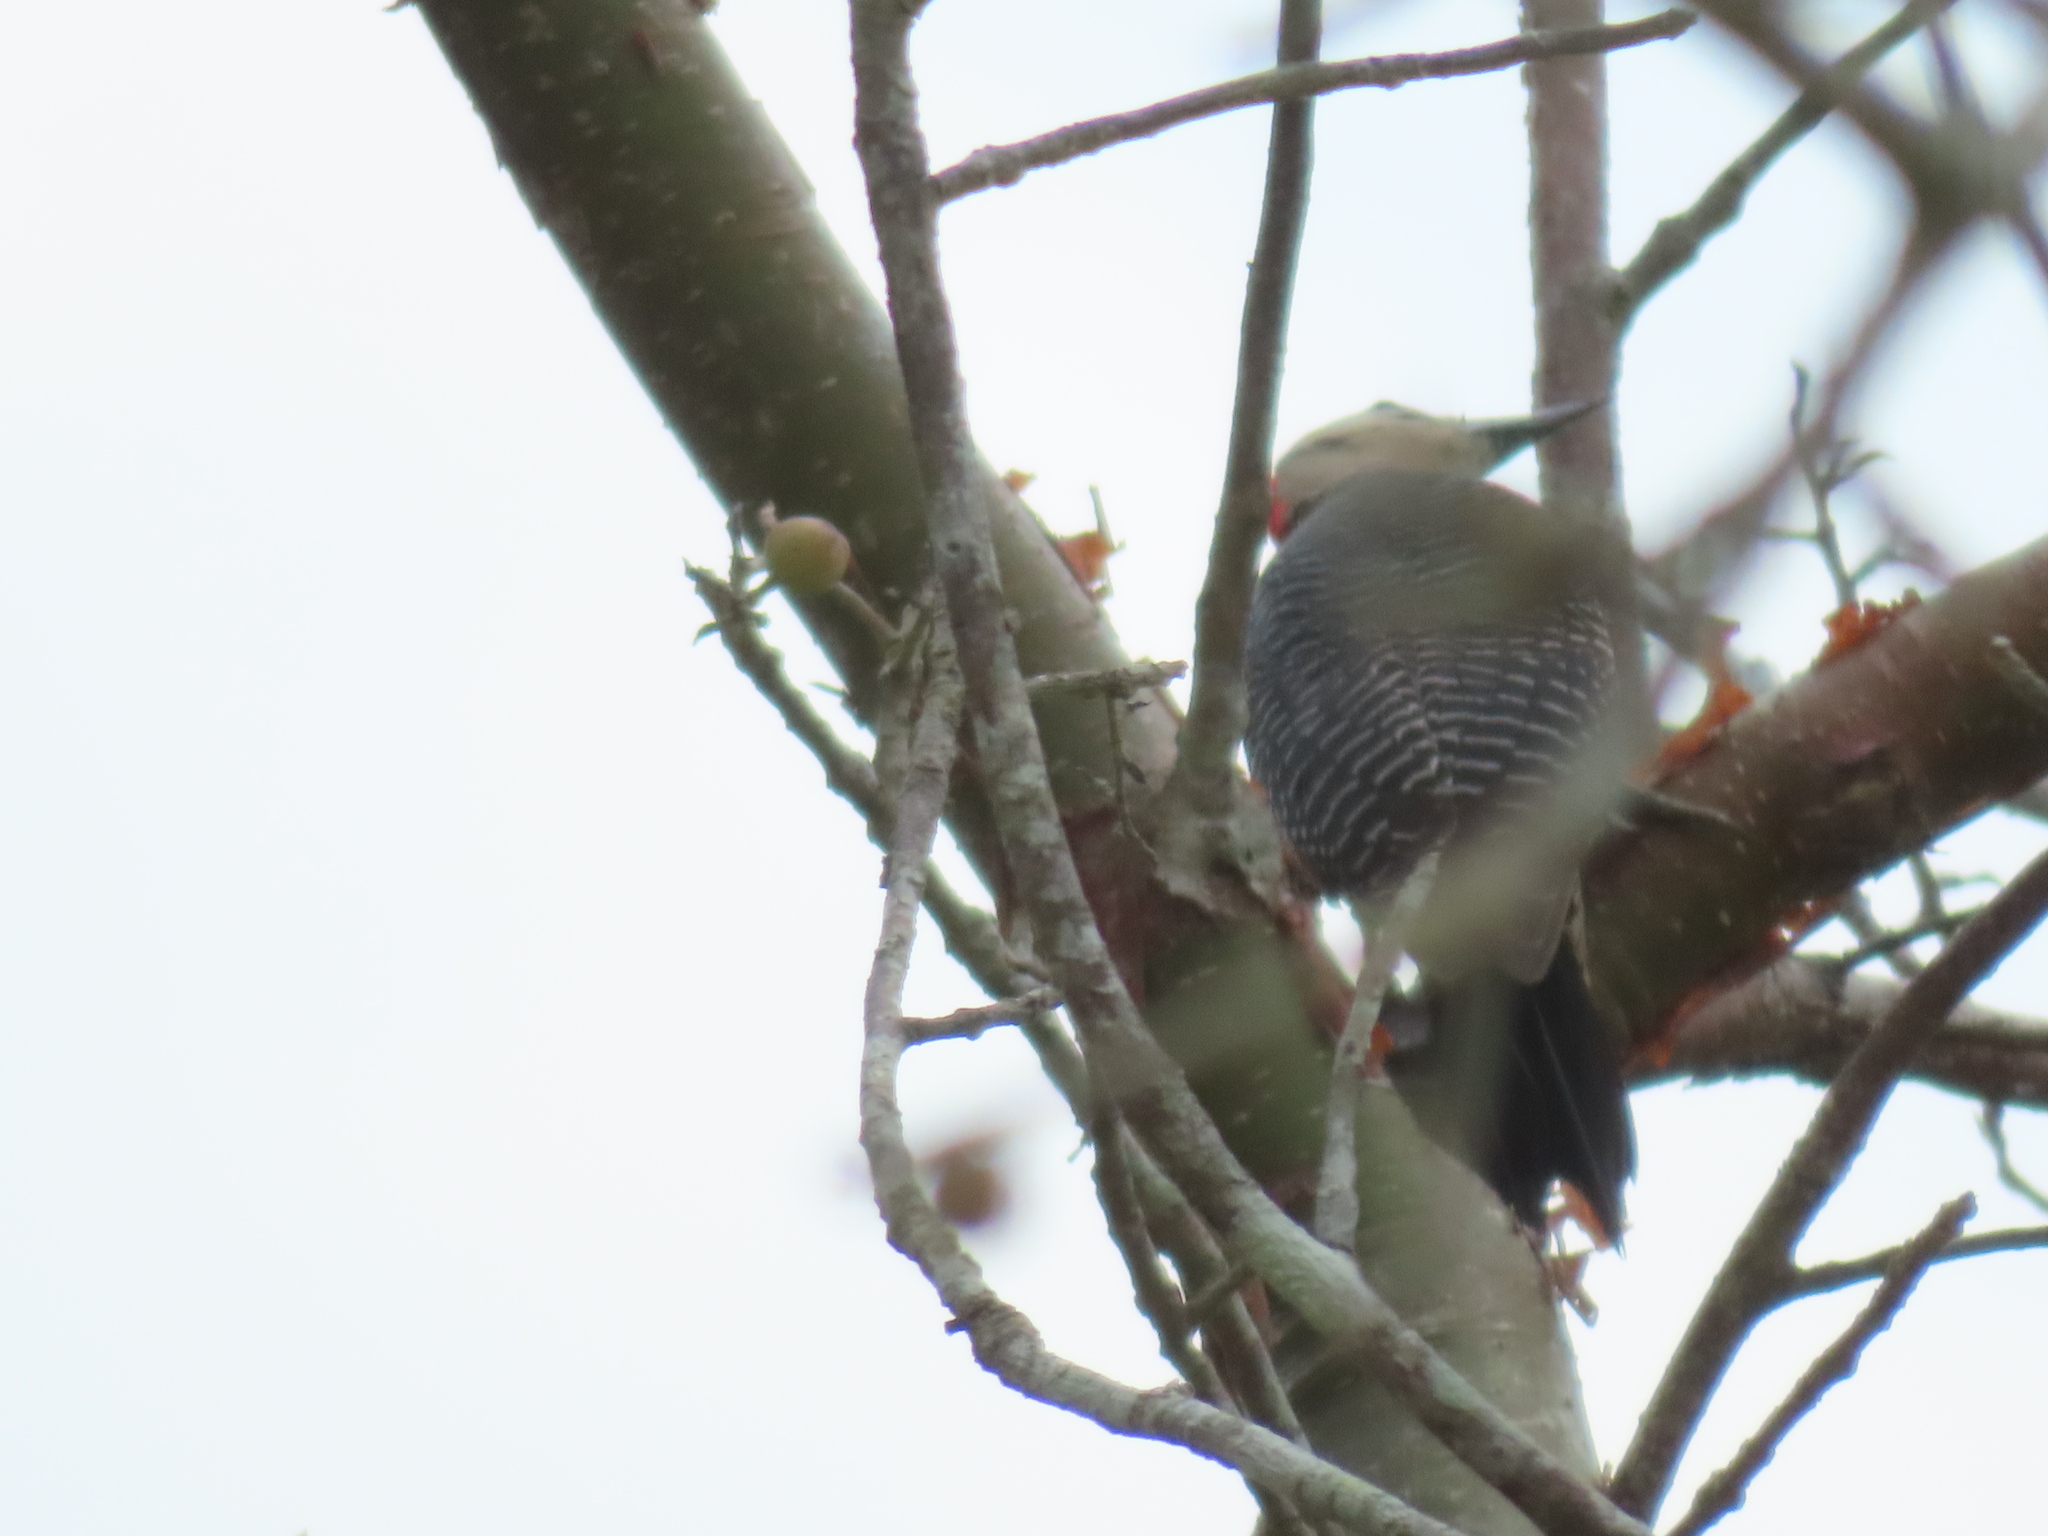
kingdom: Animalia
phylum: Chordata
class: Aves
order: Piciformes
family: Picidae
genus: Melanerpes
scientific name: Melanerpes aurifrons
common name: Golden-fronted woodpecker
